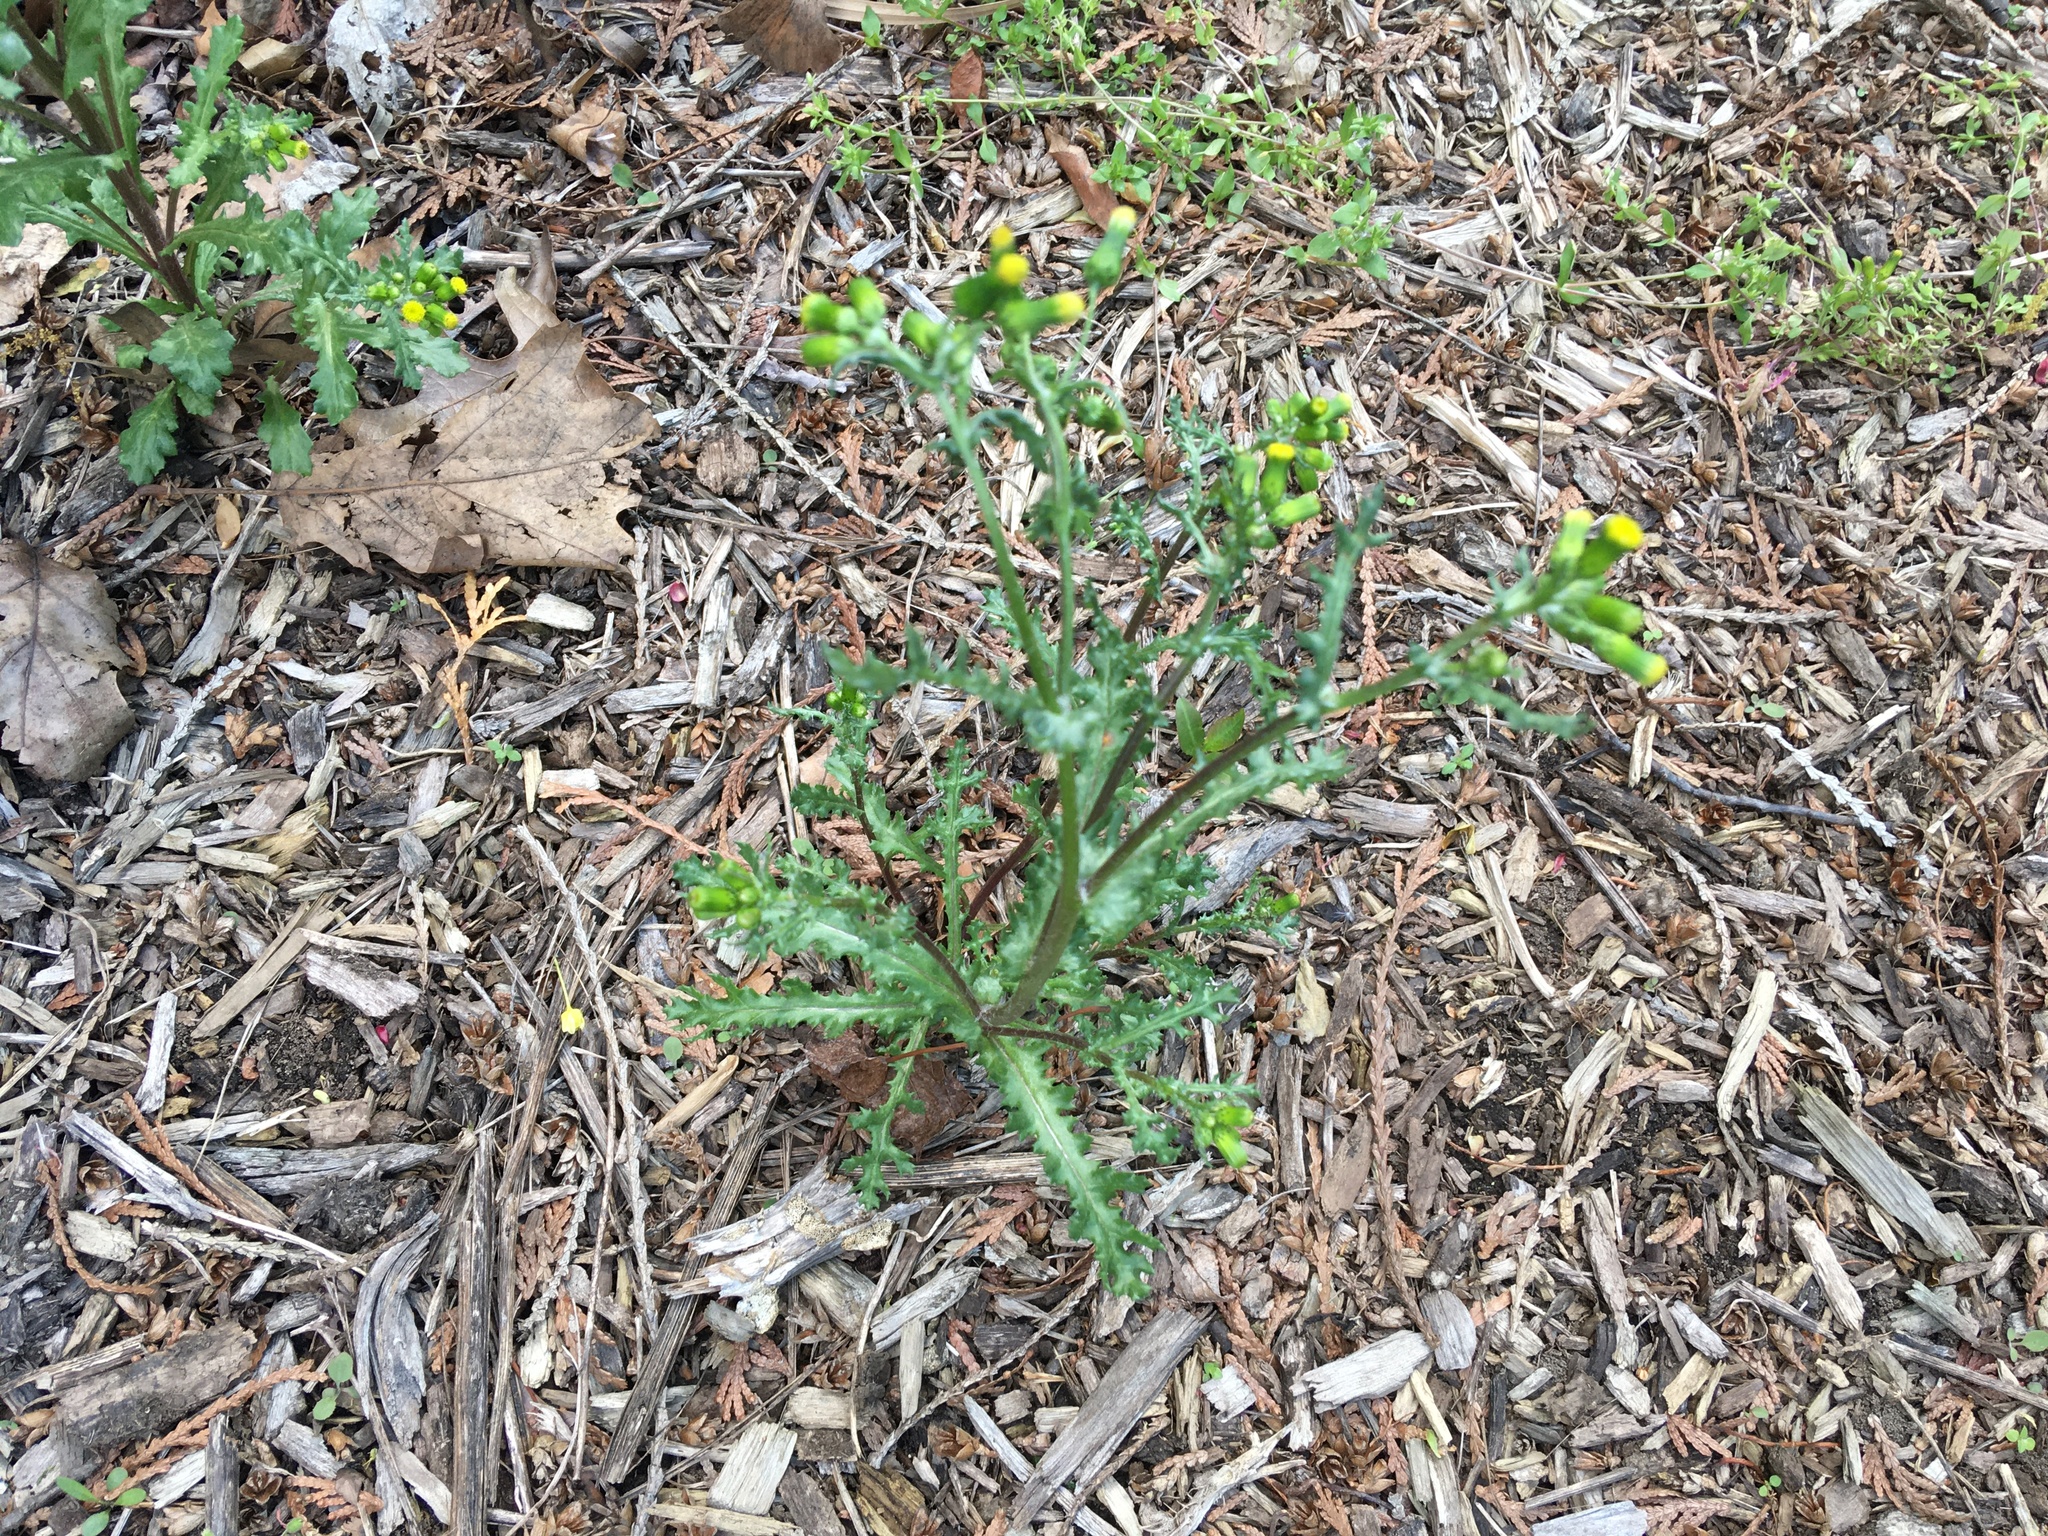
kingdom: Plantae
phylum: Tracheophyta
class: Magnoliopsida
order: Asterales
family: Asteraceae
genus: Senecio
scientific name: Senecio vulgaris
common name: Old-man-in-the-spring
